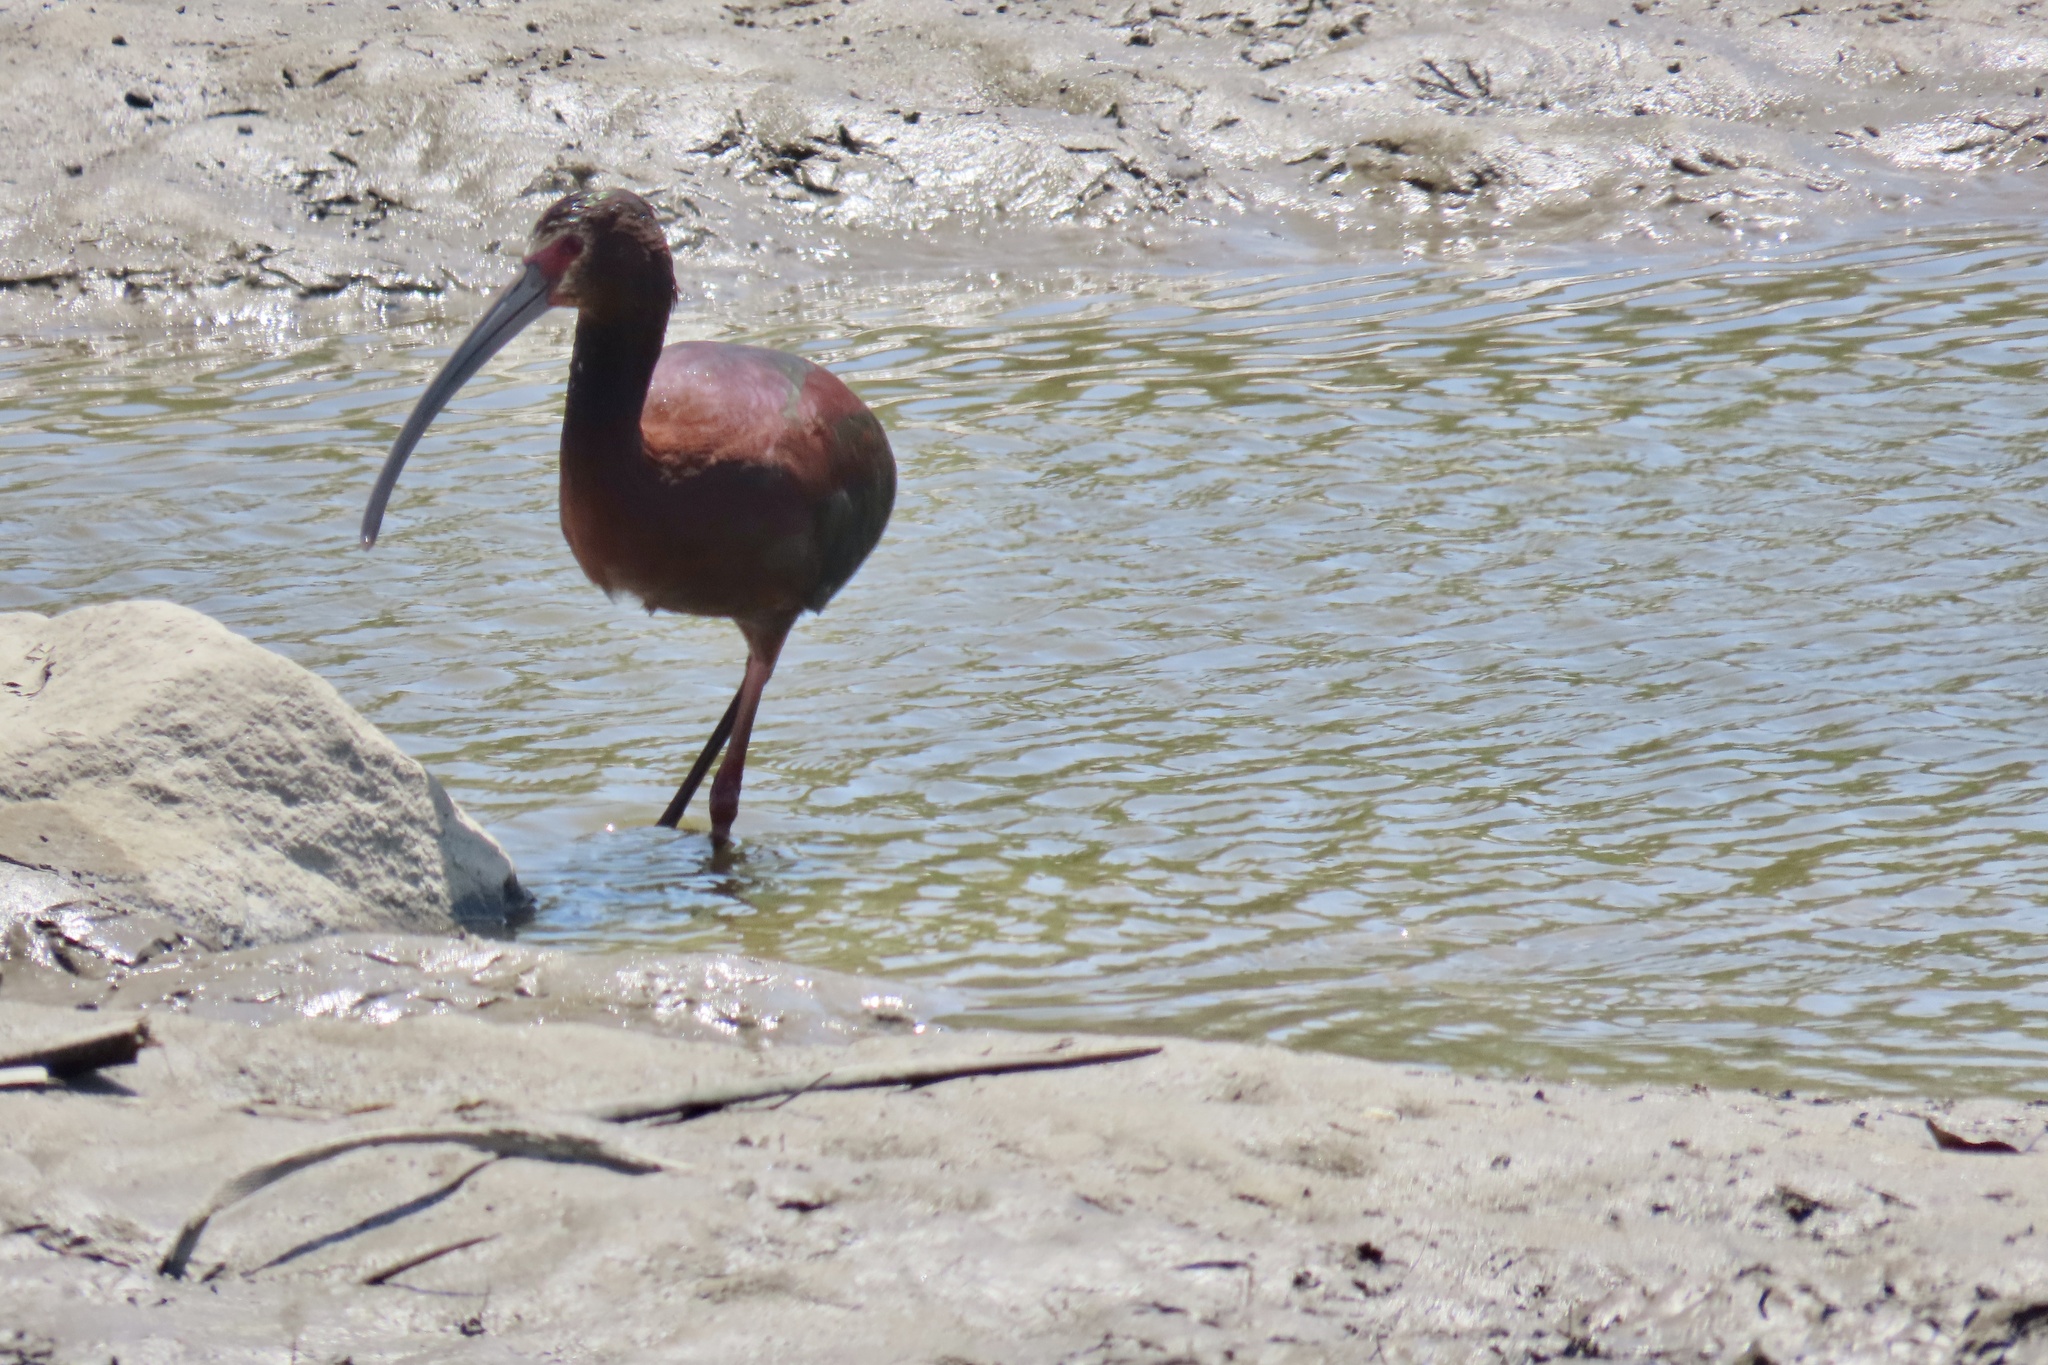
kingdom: Animalia
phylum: Chordata
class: Aves
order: Pelecaniformes
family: Threskiornithidae
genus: Plegadis
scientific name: Plegadis chihi
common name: White-faced ibis
